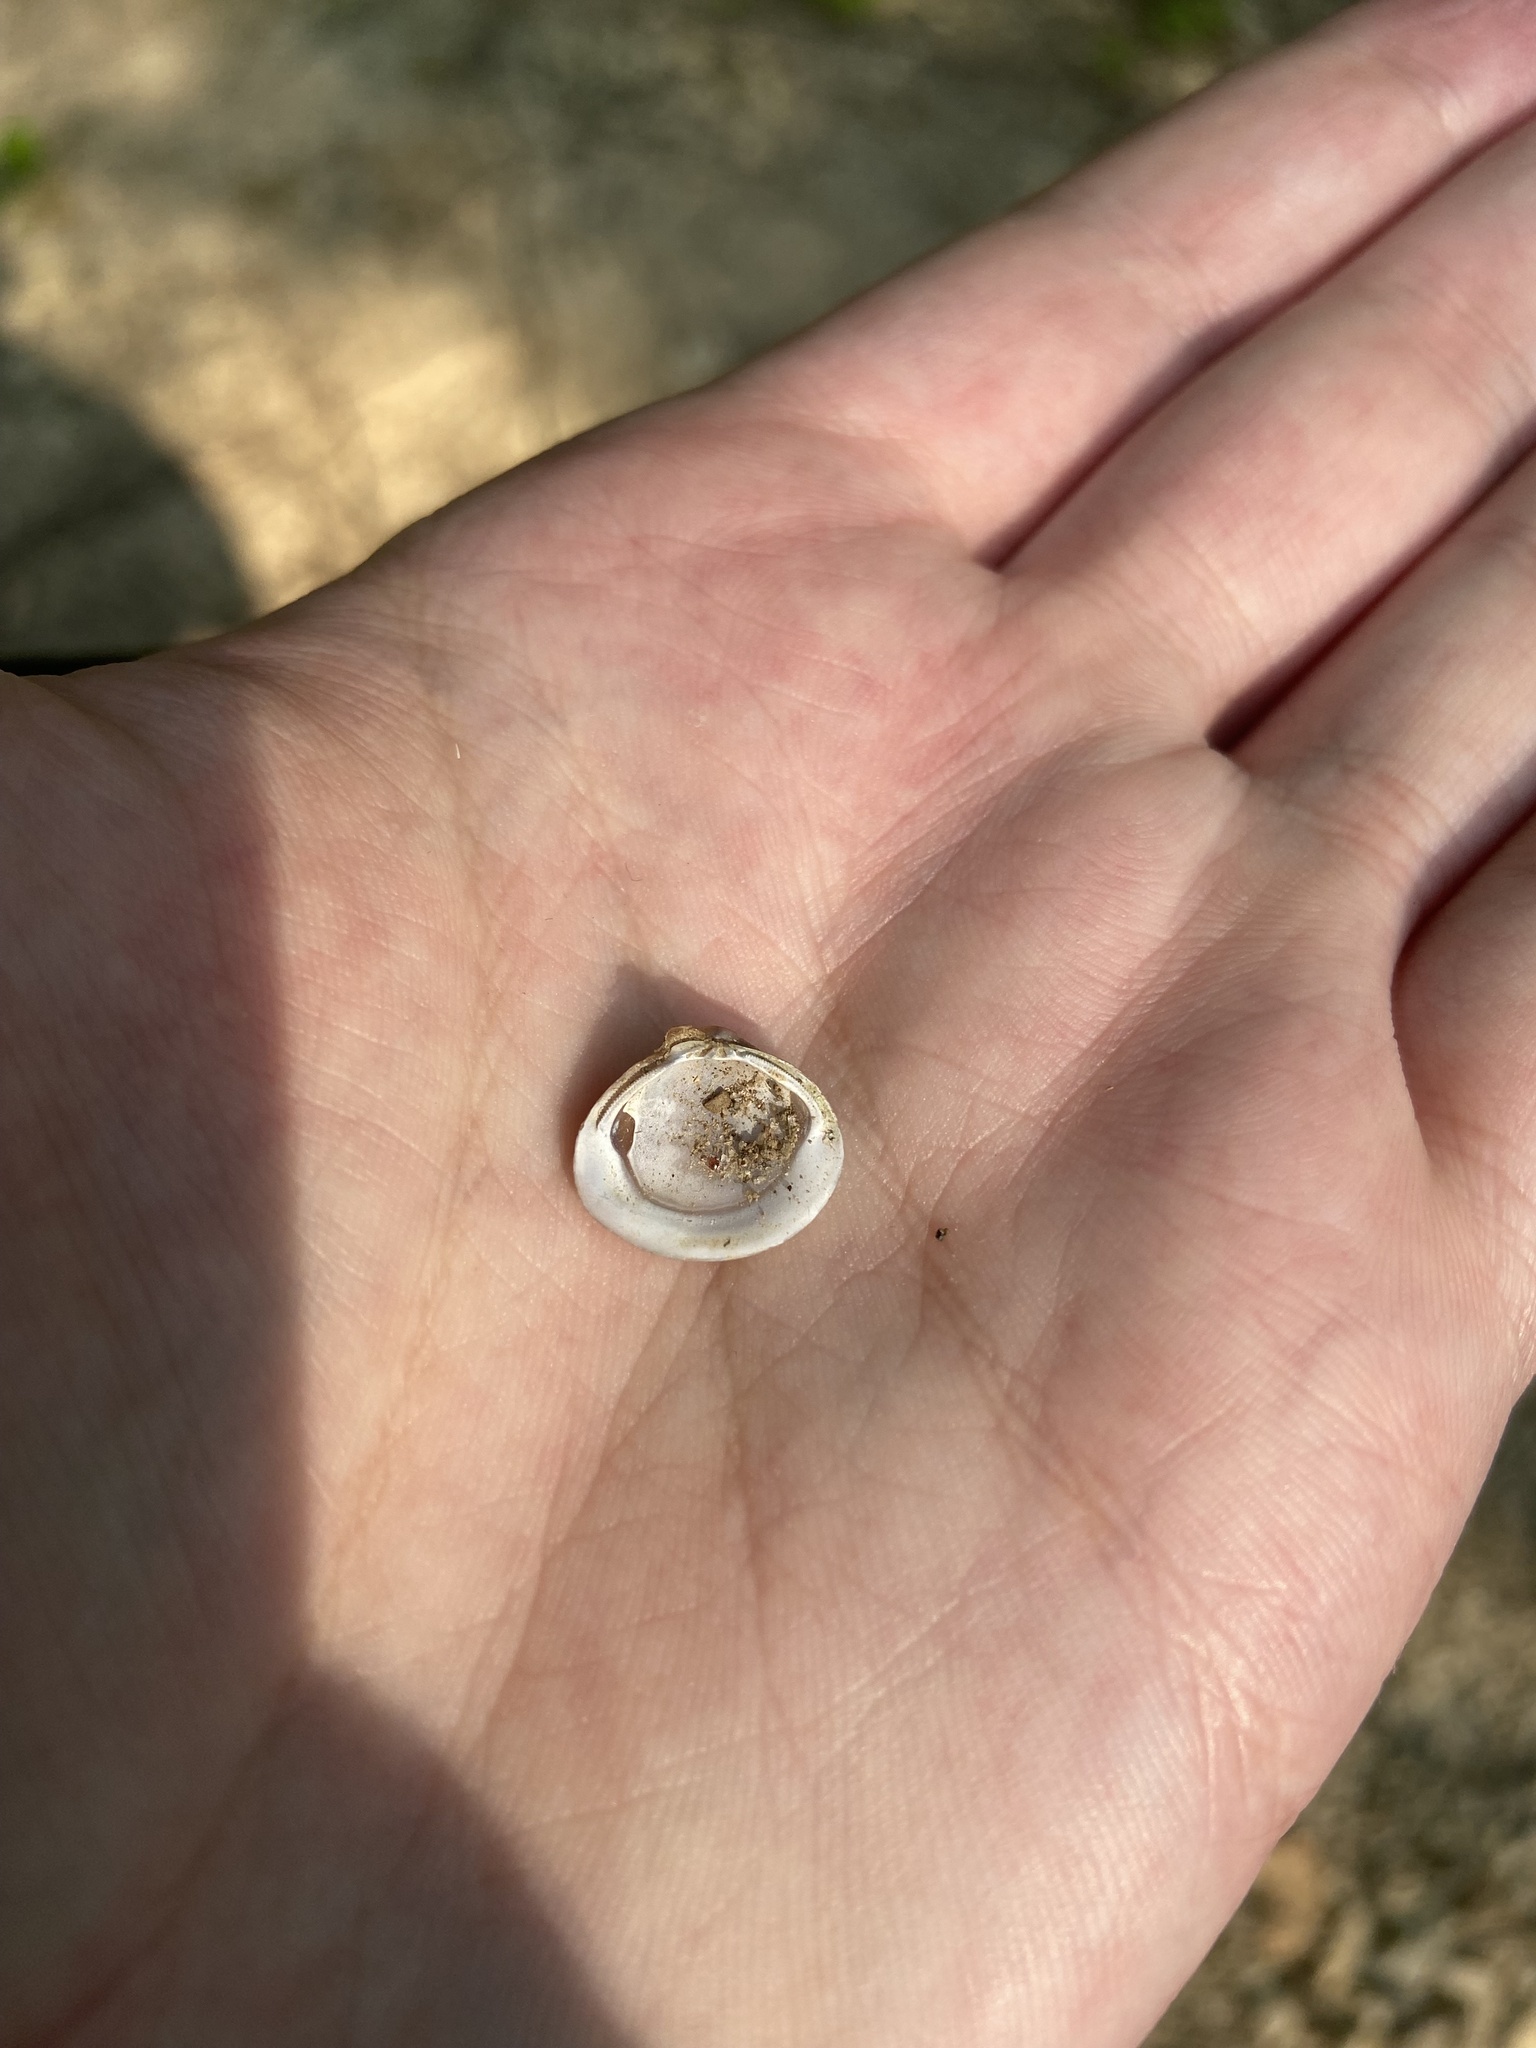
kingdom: Animalia
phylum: Mollusca
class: Bivalvia
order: Venerida
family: Cyrenidae
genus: Corbicula
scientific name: Corbicula fluminea
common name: Asian clam
